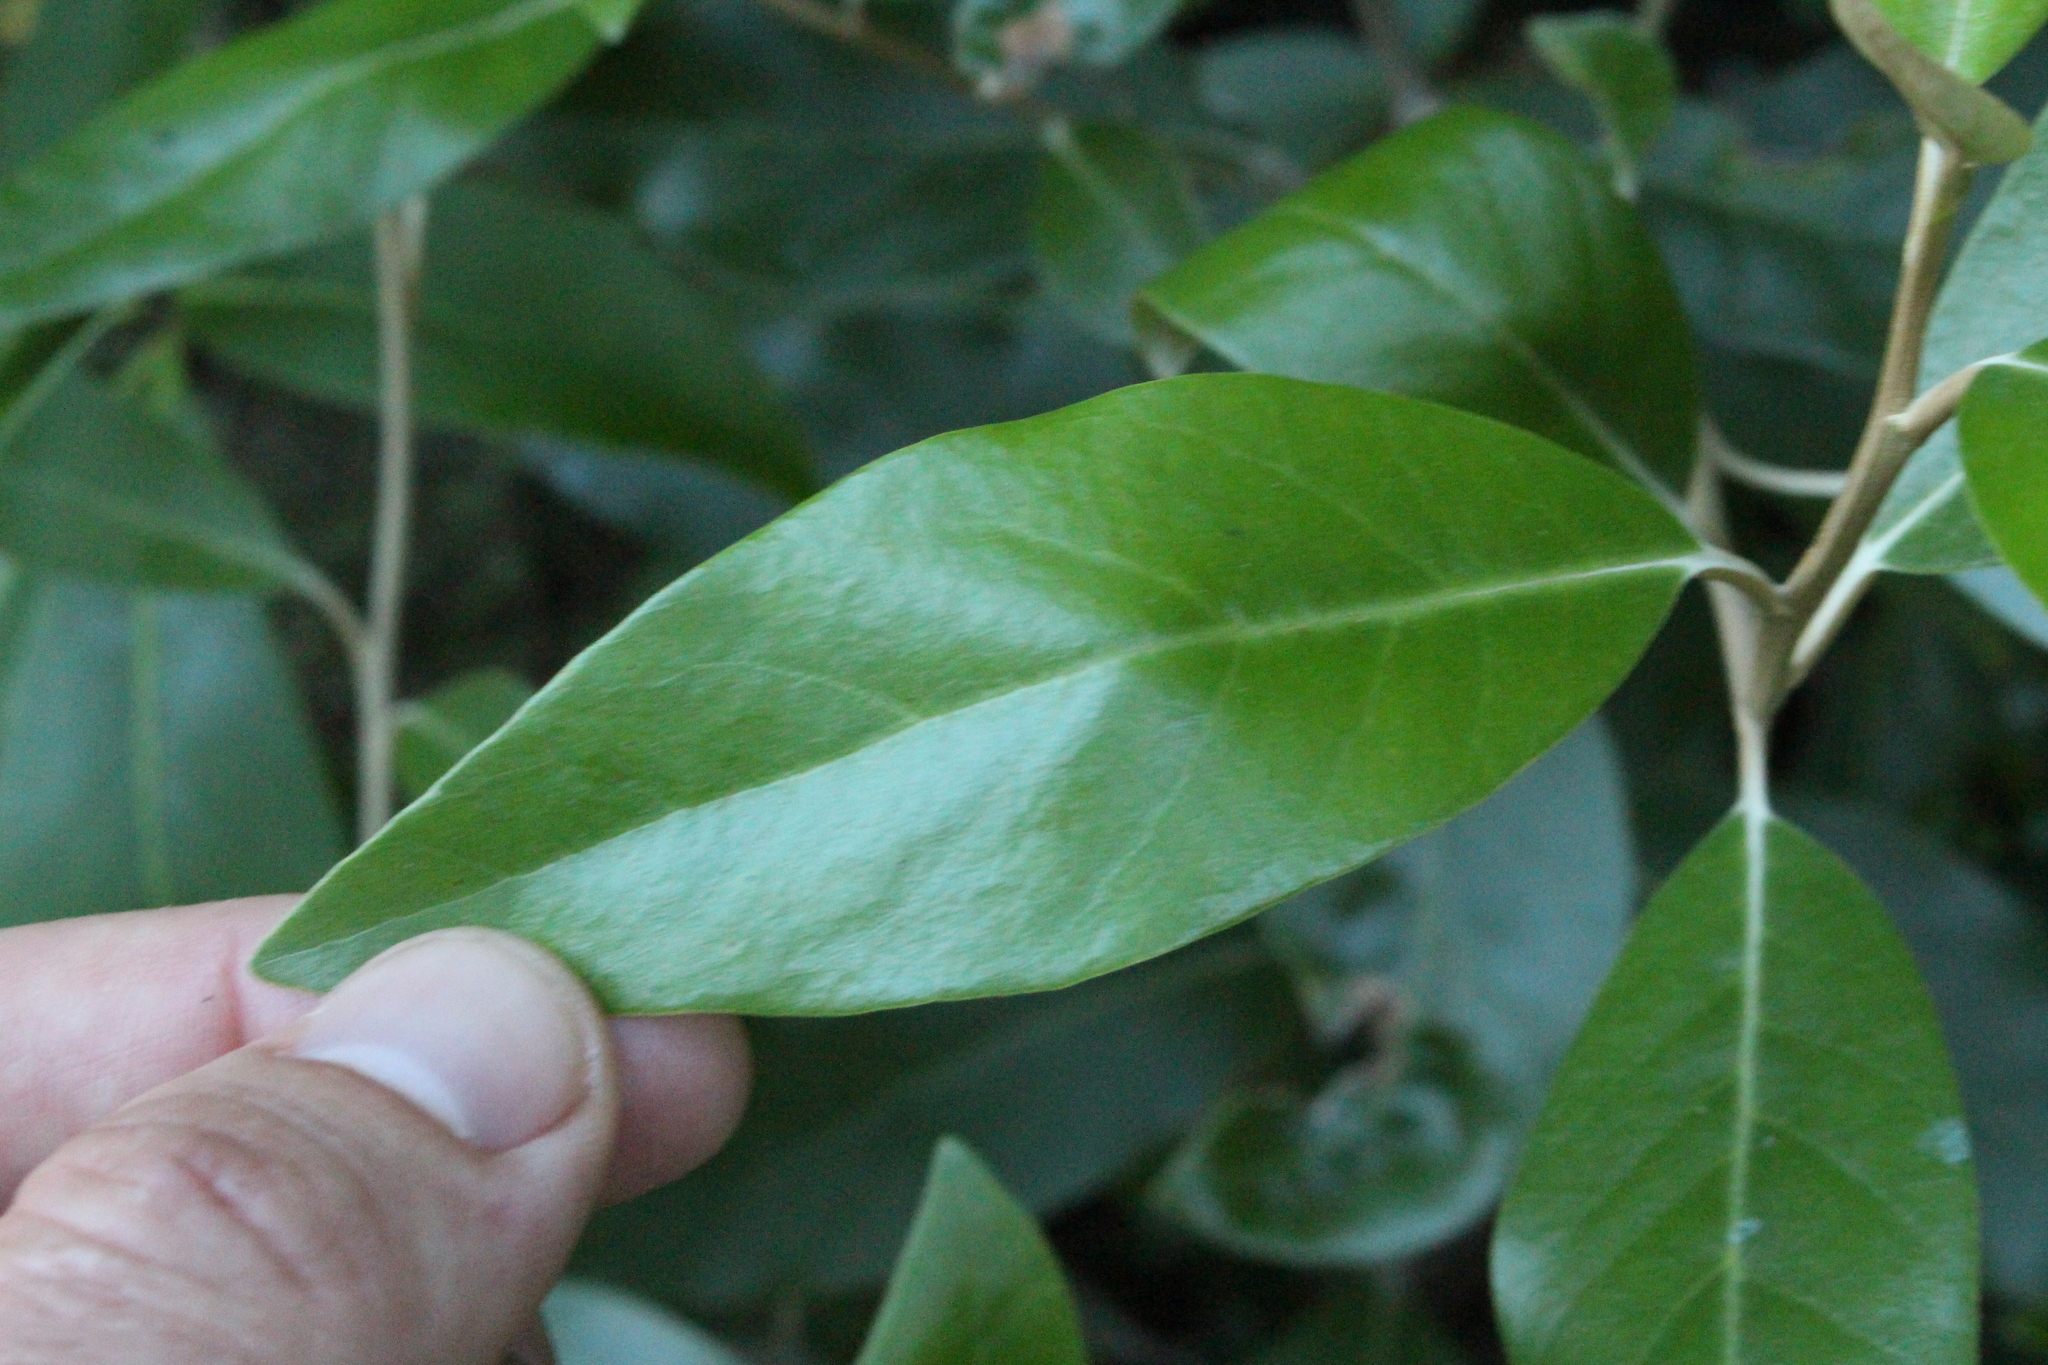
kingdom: Plantae
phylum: Tracheophyta
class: Magnoliopsida
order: Asterales
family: Asteraceae
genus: Olearia
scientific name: Olearia avicenniifolia
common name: Mangrove-leaf daisybush
